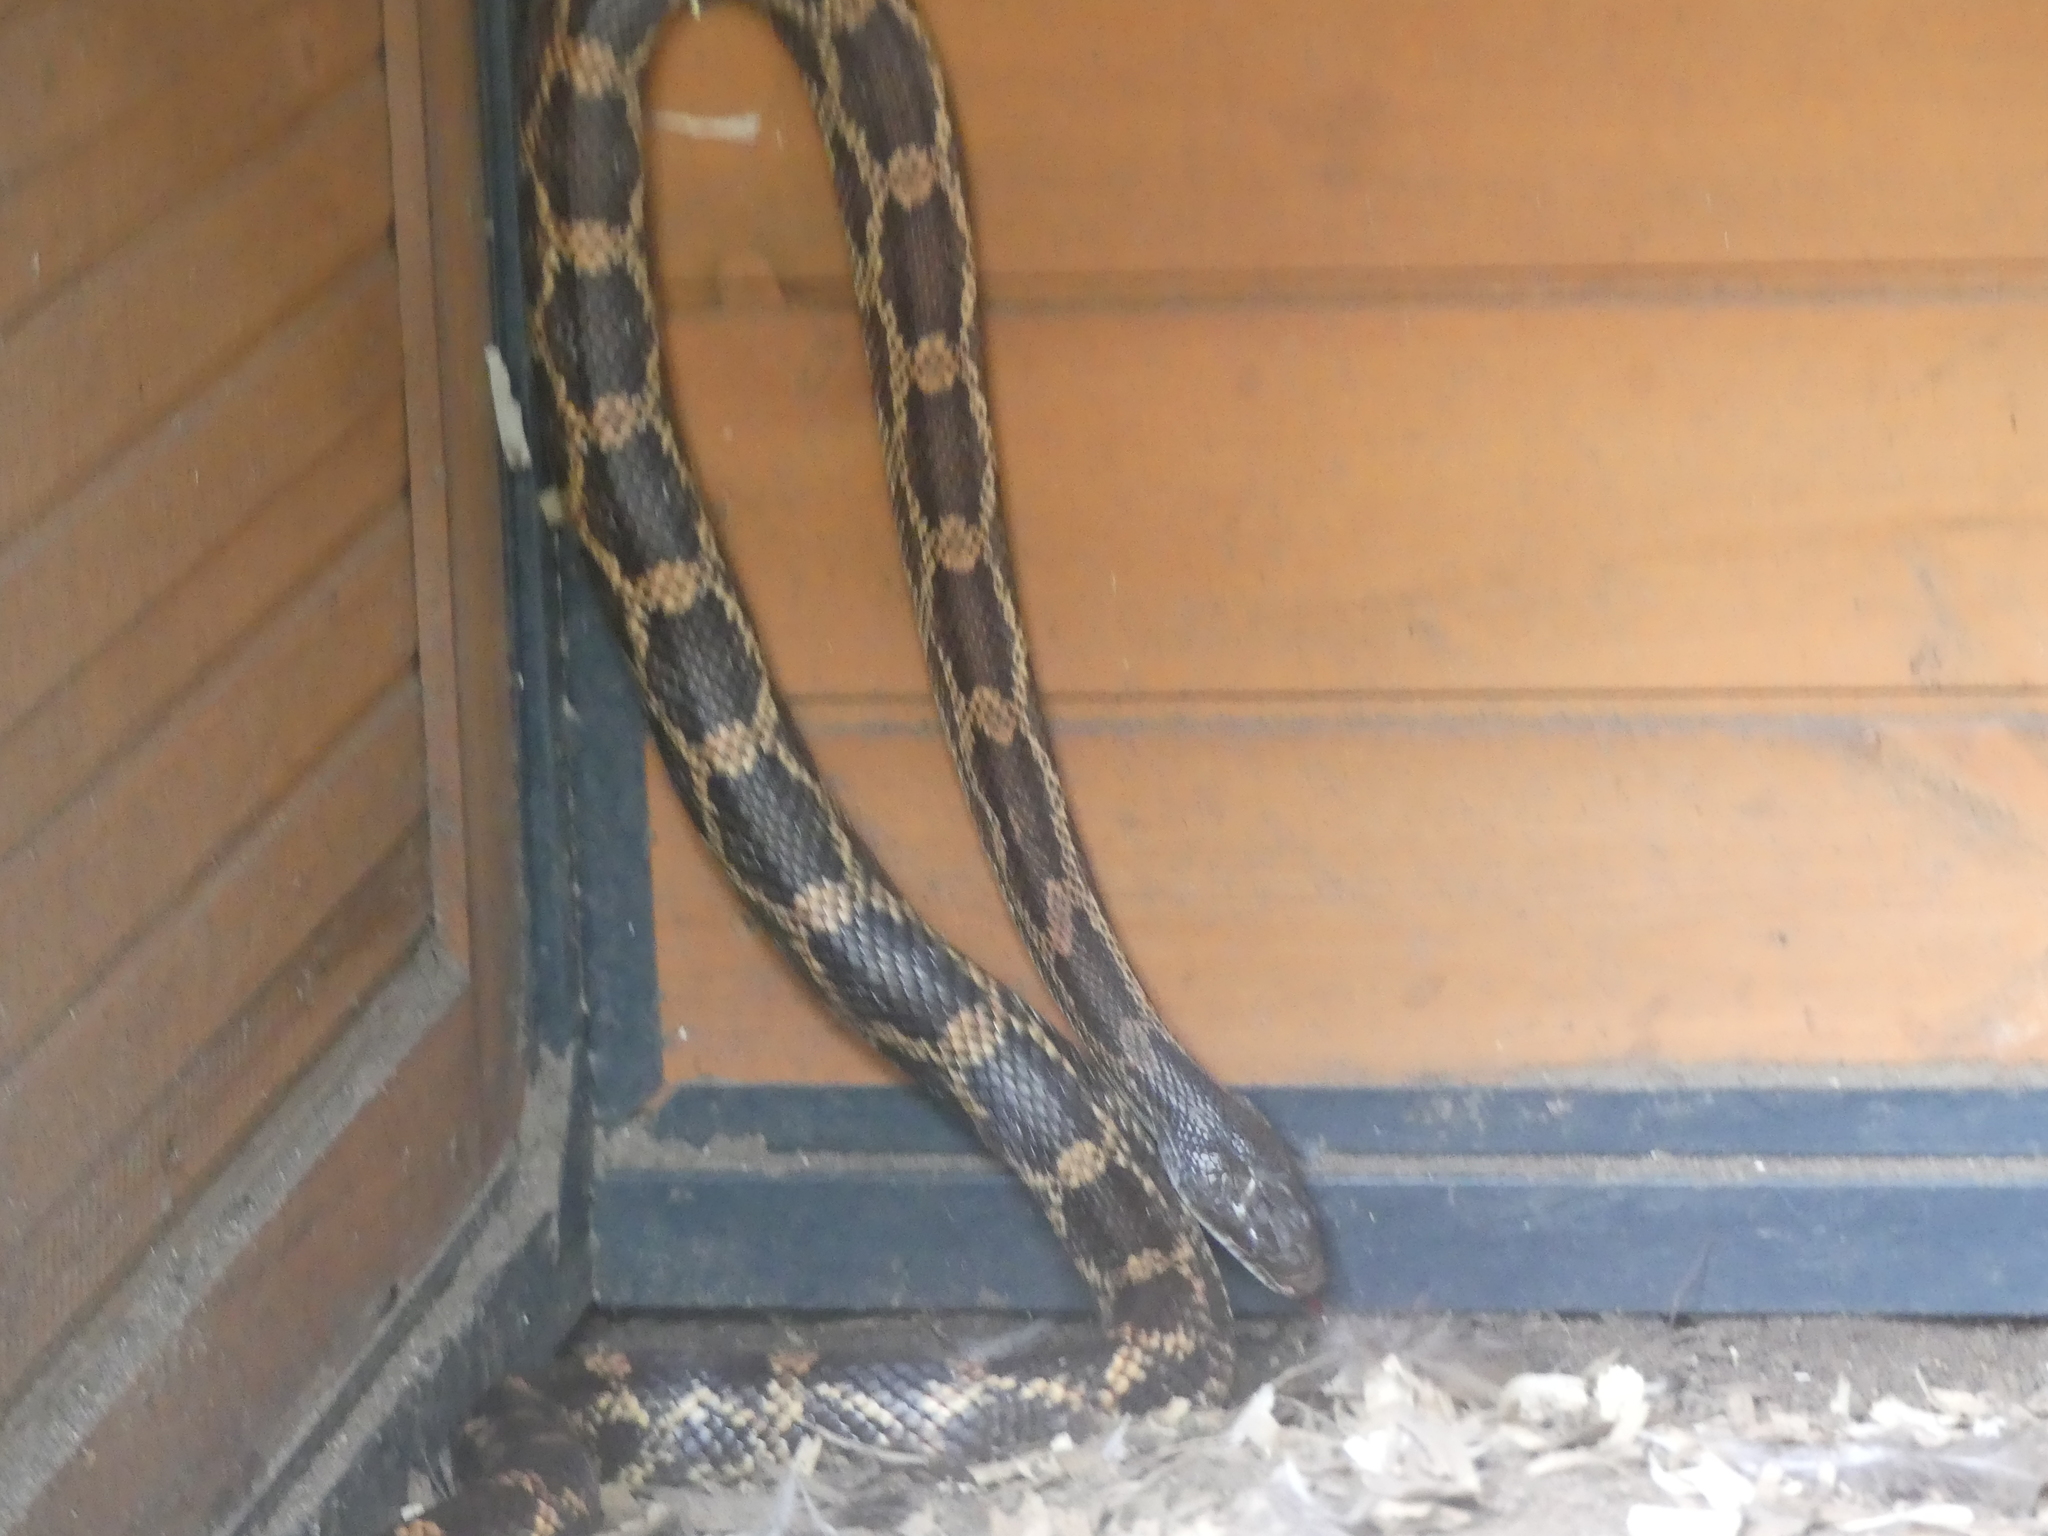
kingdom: Animalia
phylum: Chordata
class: Squamata
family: Colubridae
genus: Pantherophis
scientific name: Pantherophis obsoletus
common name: Black rat snake
